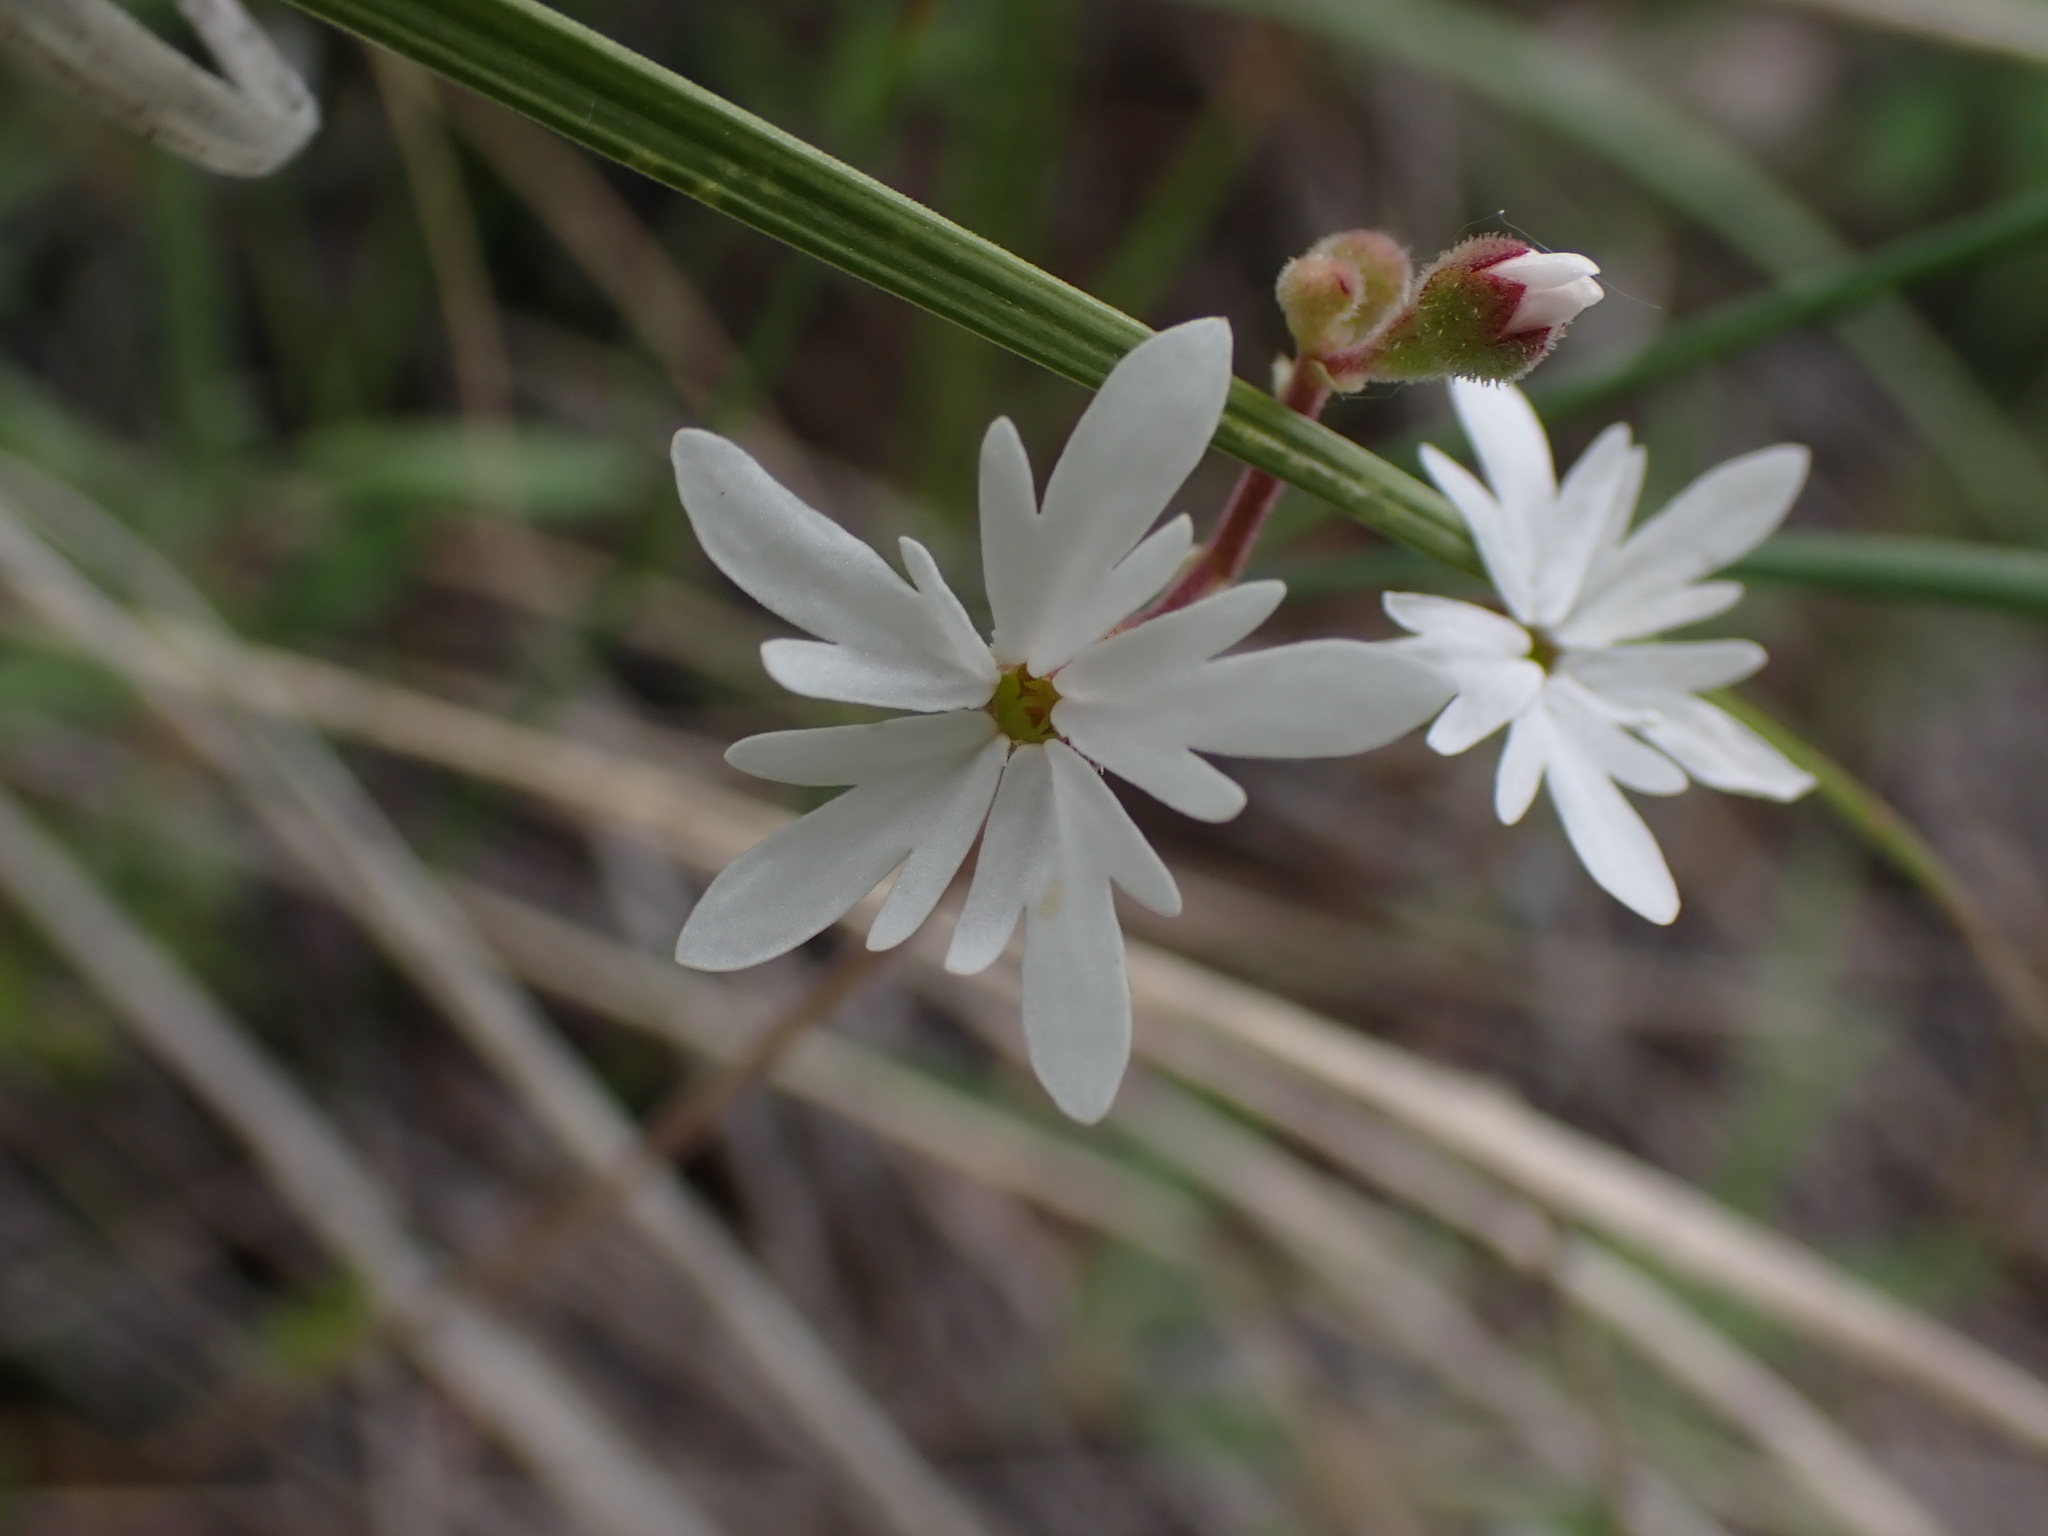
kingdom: Plantae
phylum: Tracheophyta
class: Magnoliopsida
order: Saxifragales
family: Saxifragaceae
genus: Lithophragma
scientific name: Lithophragma parviflorum
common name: Small-flowered fringe-cup
